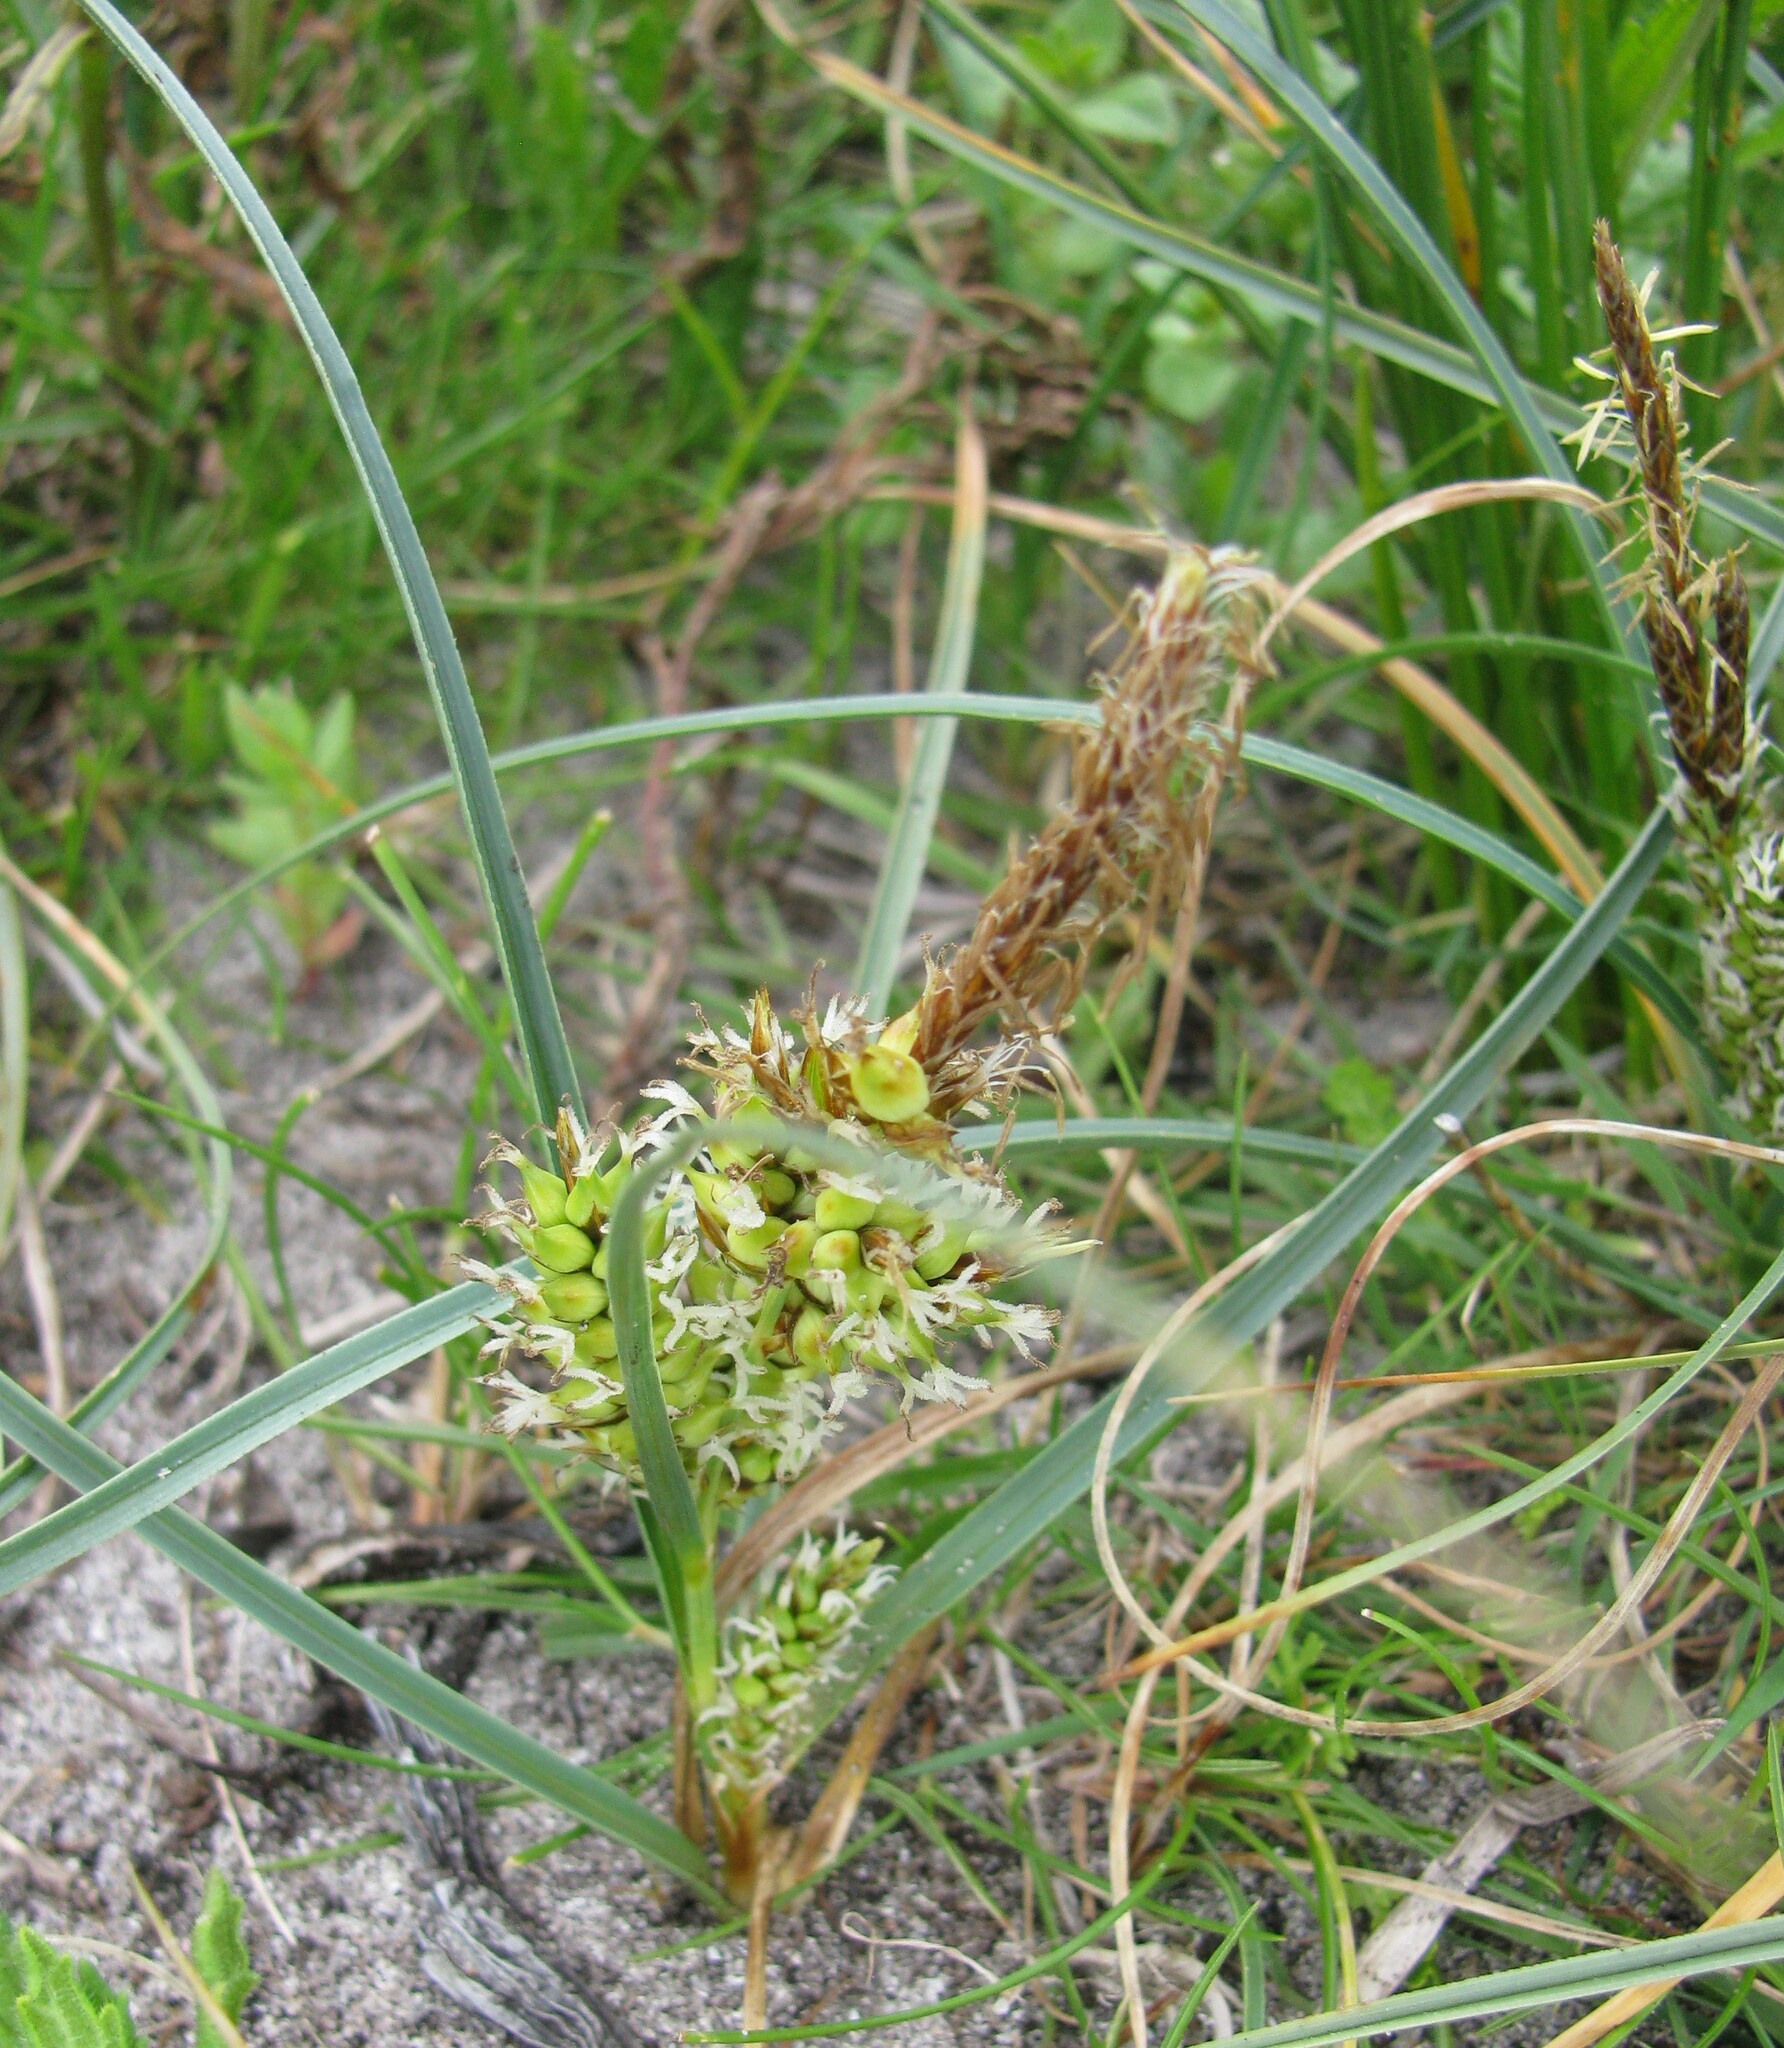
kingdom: Plantae
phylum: Tracheophyta
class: Liliopsida
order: Poales
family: Cyperaceae
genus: Carex
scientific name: Carex pumila
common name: Dwarf sedge
